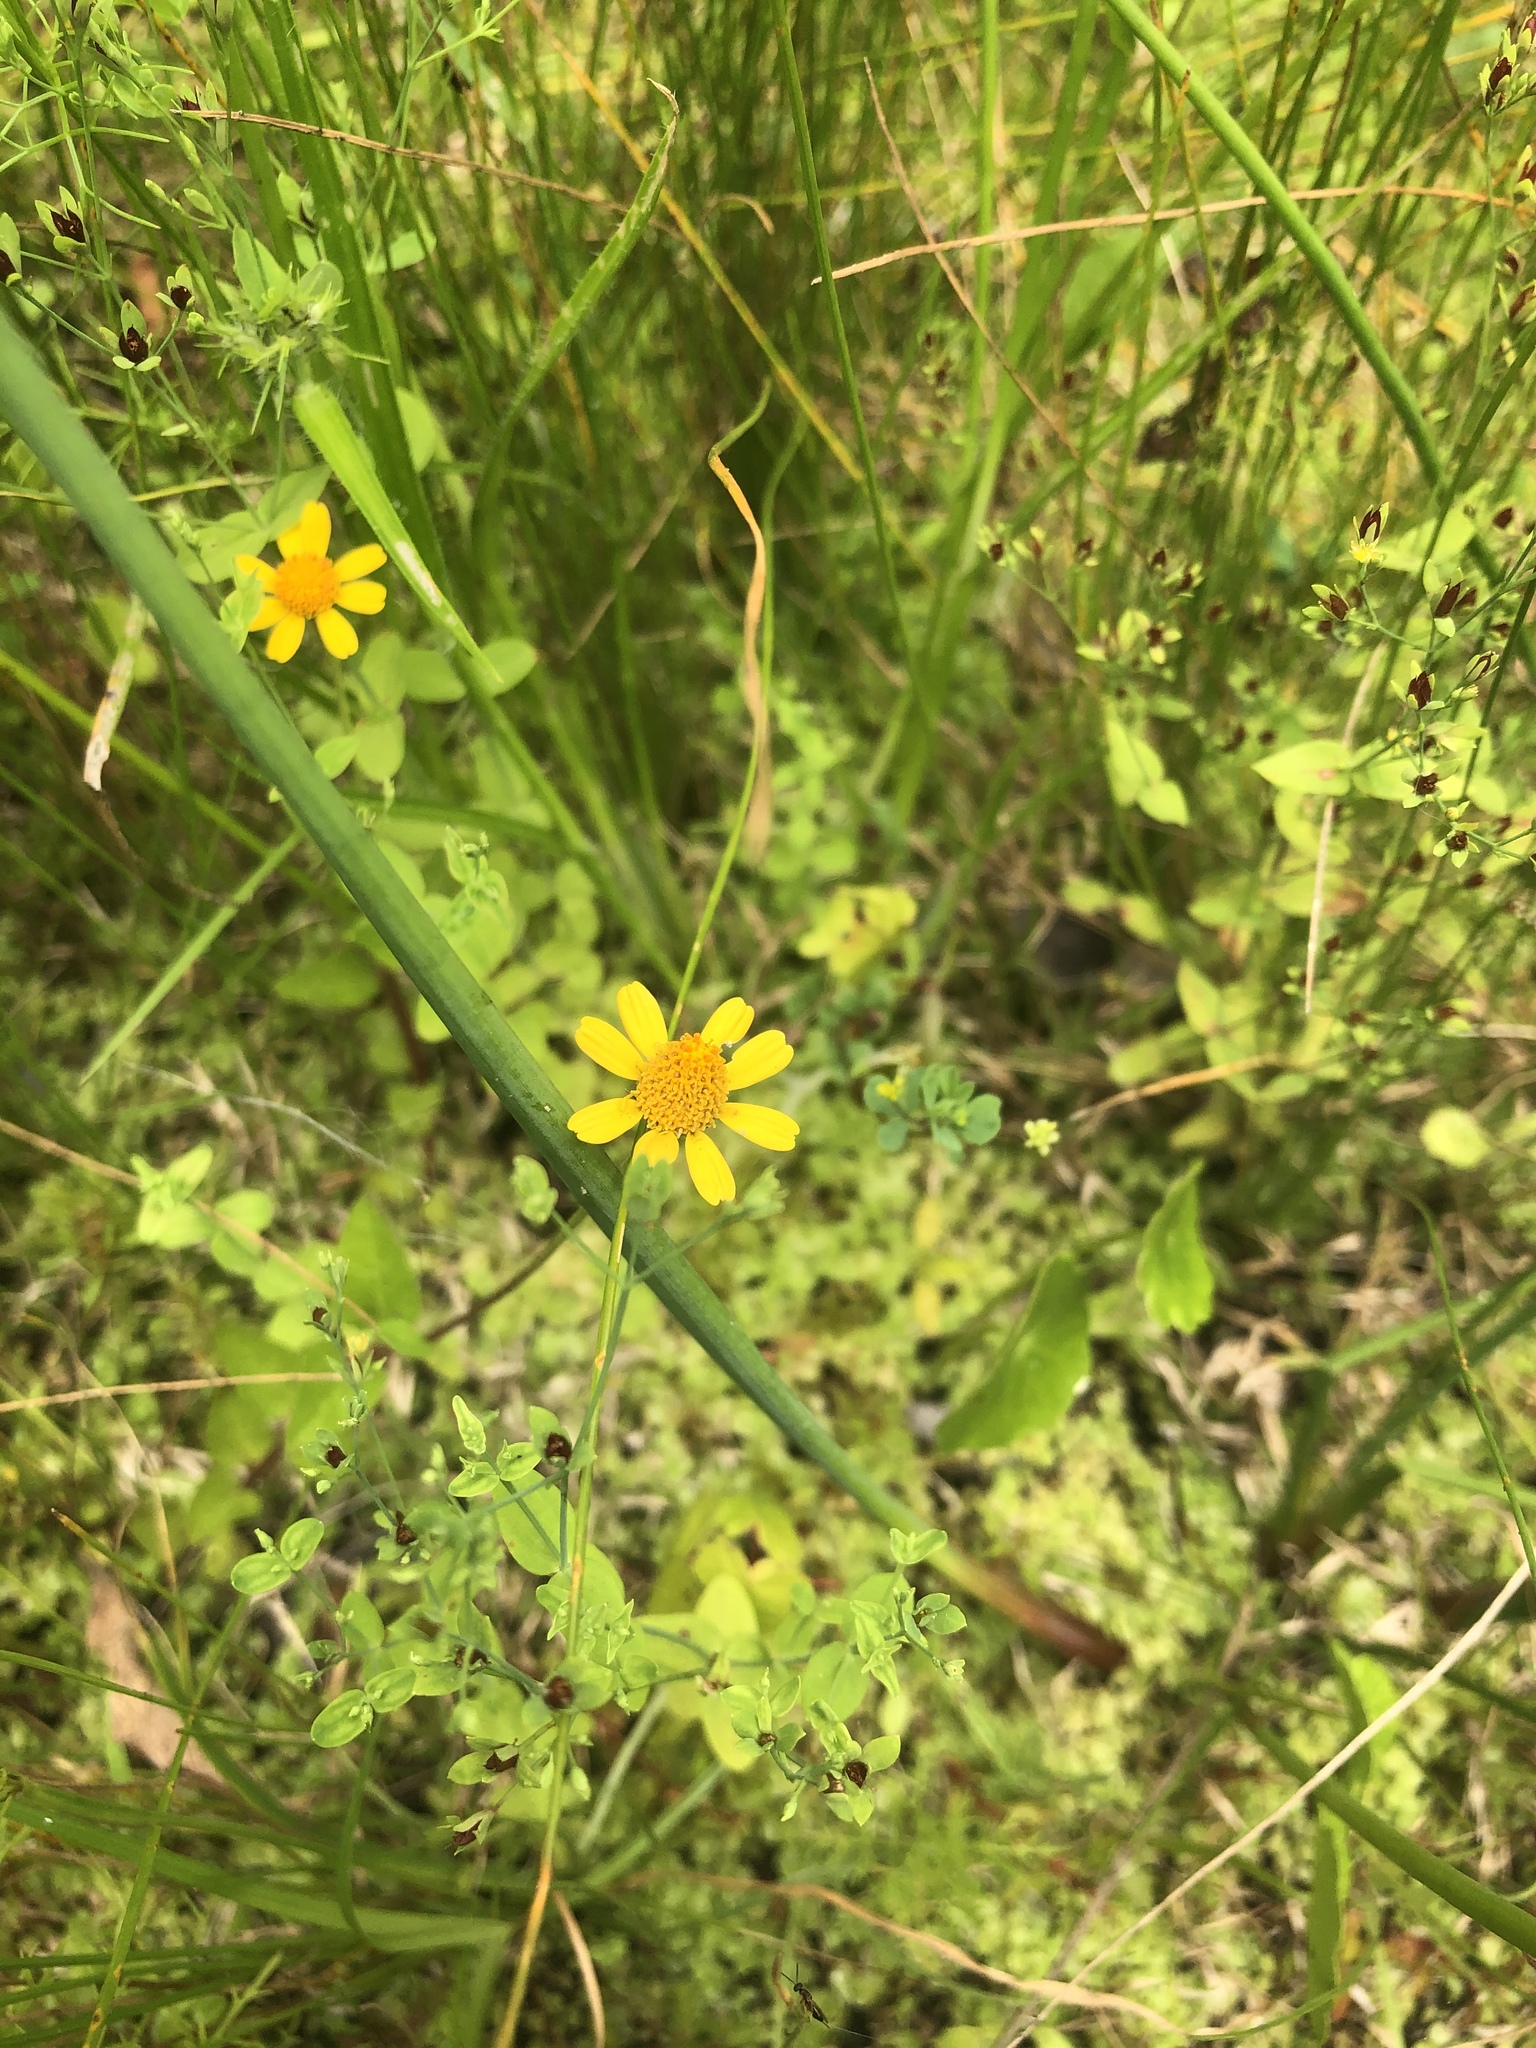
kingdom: Plantae
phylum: Tracheophyta
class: Magnoliopsida
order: Asterales
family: Asteraceae
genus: Acmella
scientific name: Acmella repens
